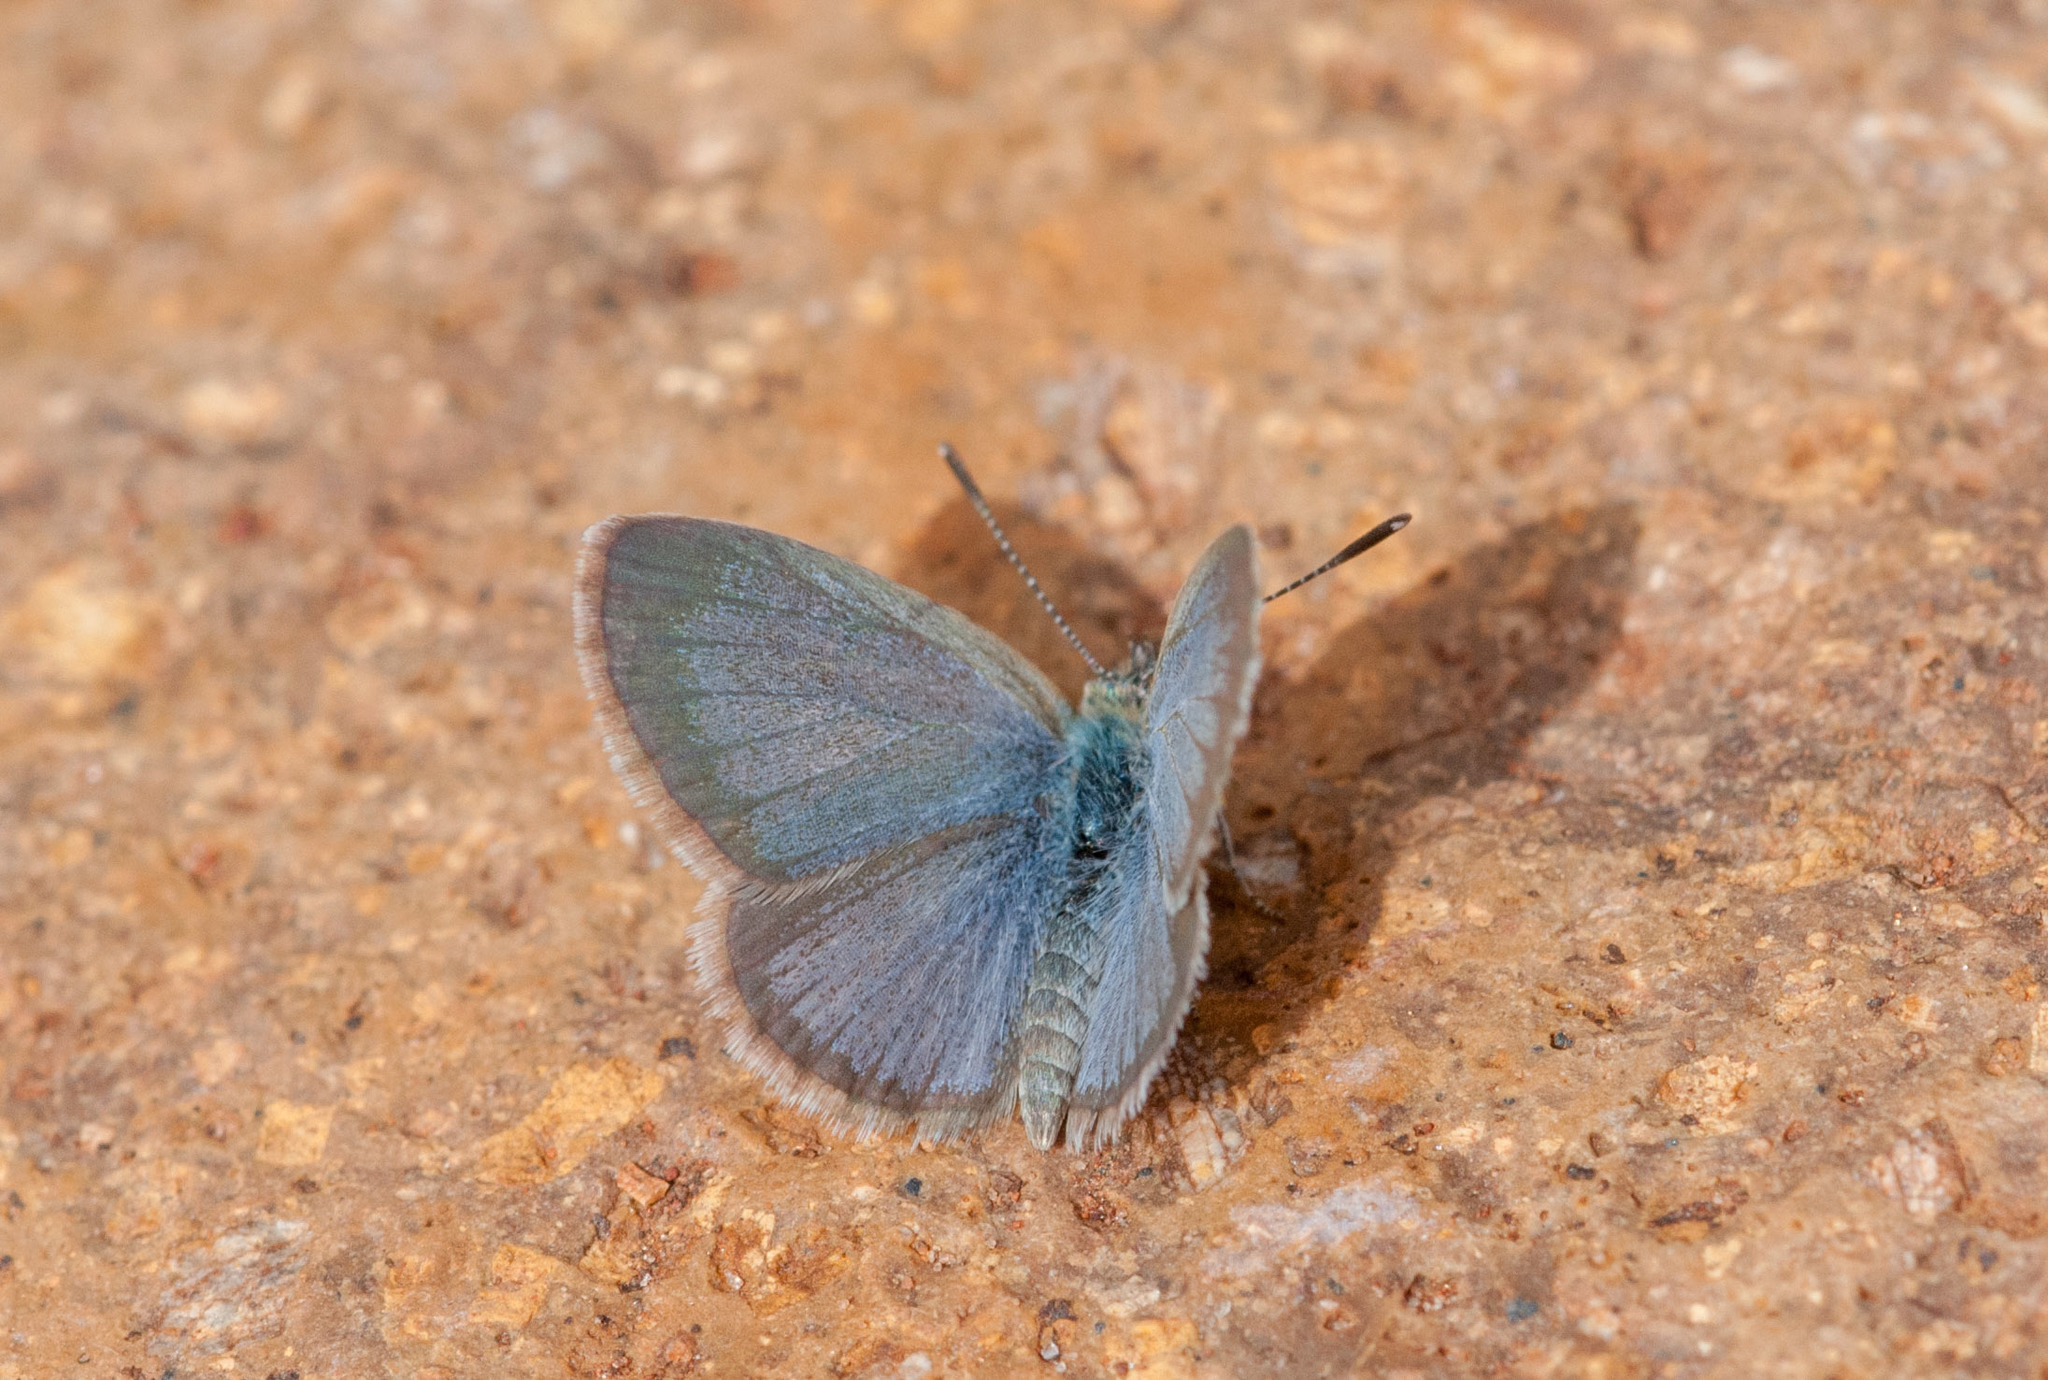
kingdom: Animalia
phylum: Arthropoda
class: Insecta
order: Lepidoptera
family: Lycaenidae
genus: Zizina
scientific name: Zizina labradus
